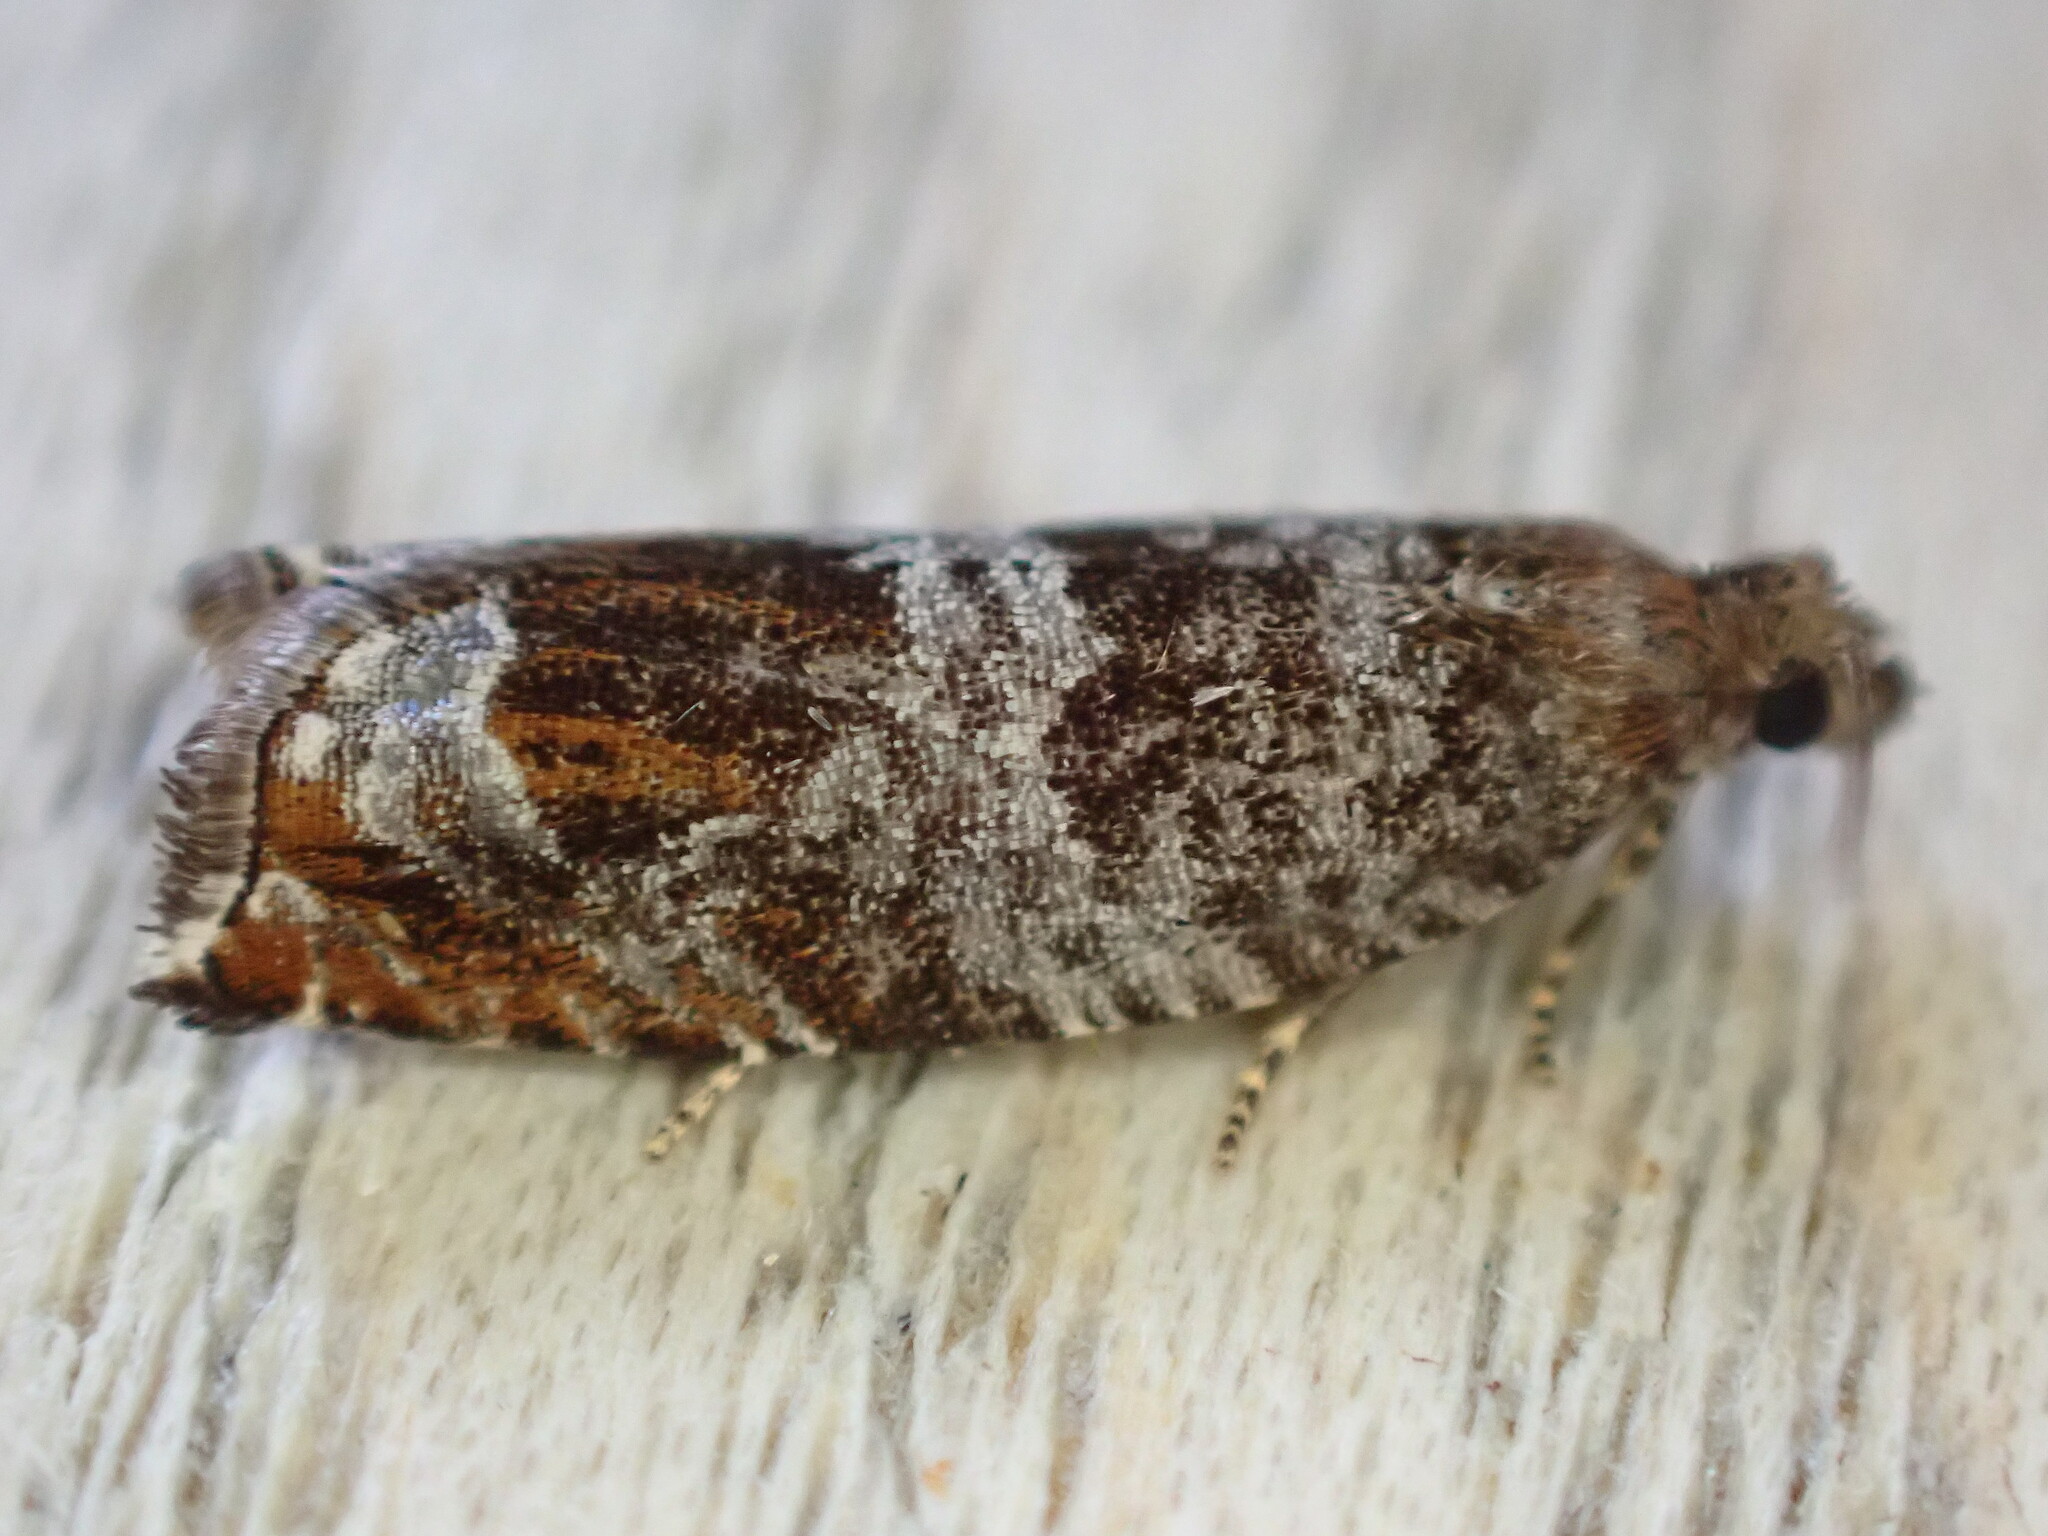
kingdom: Animalia
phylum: Arthropoda
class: Insecta
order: Lepidoptera
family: Tortricidae
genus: Ancylis
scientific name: Ancylis achatana
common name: Triangle-marked roller
